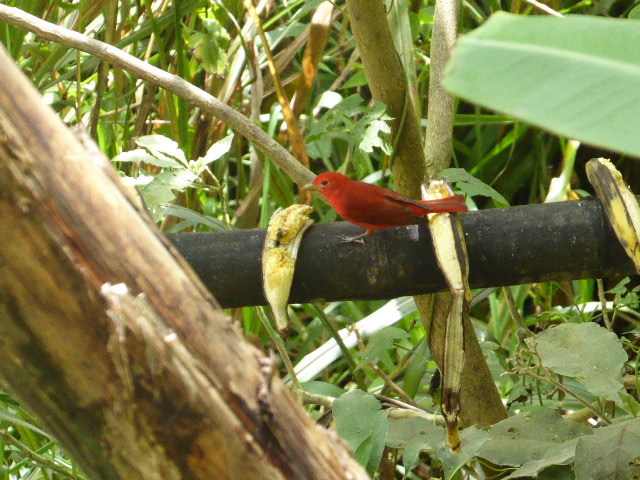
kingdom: Animalia
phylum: Chordata
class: Aves
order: Passeriformes
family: Cardinalidae
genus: Piranga
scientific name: Piranga rubra
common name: Summer tanager
